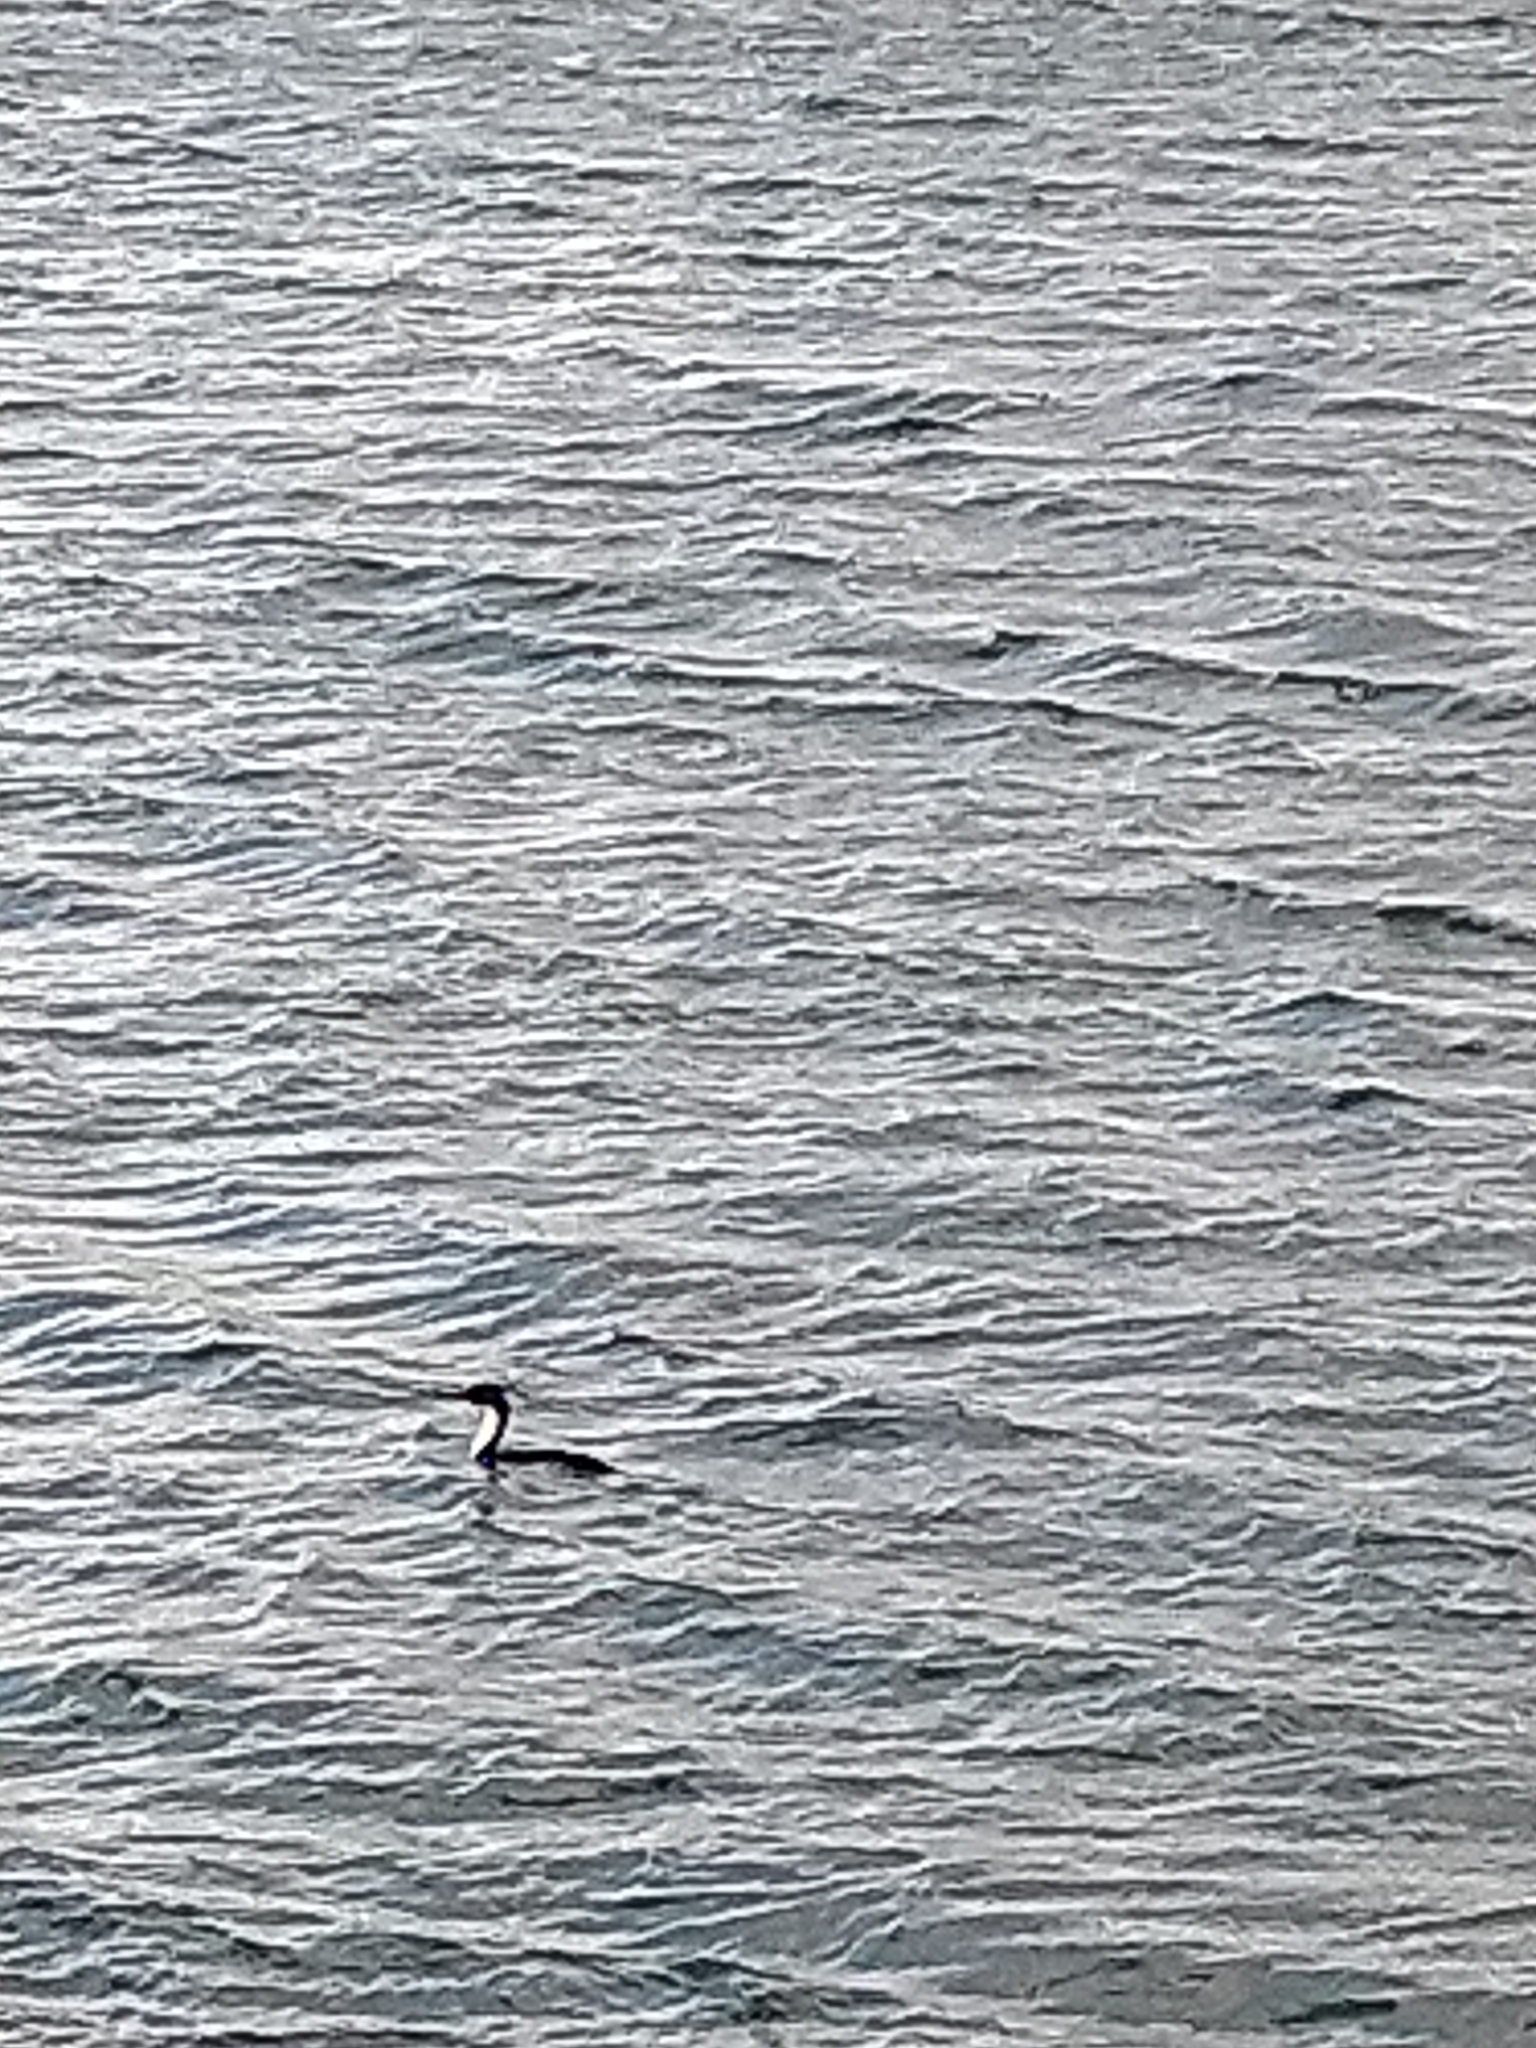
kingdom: Animalia
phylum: Chordata
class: Aves
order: Suliformes
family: Phalacrocoracidae
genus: Leucocarbo
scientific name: Leucocarbo atriceps
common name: Imperial shag
